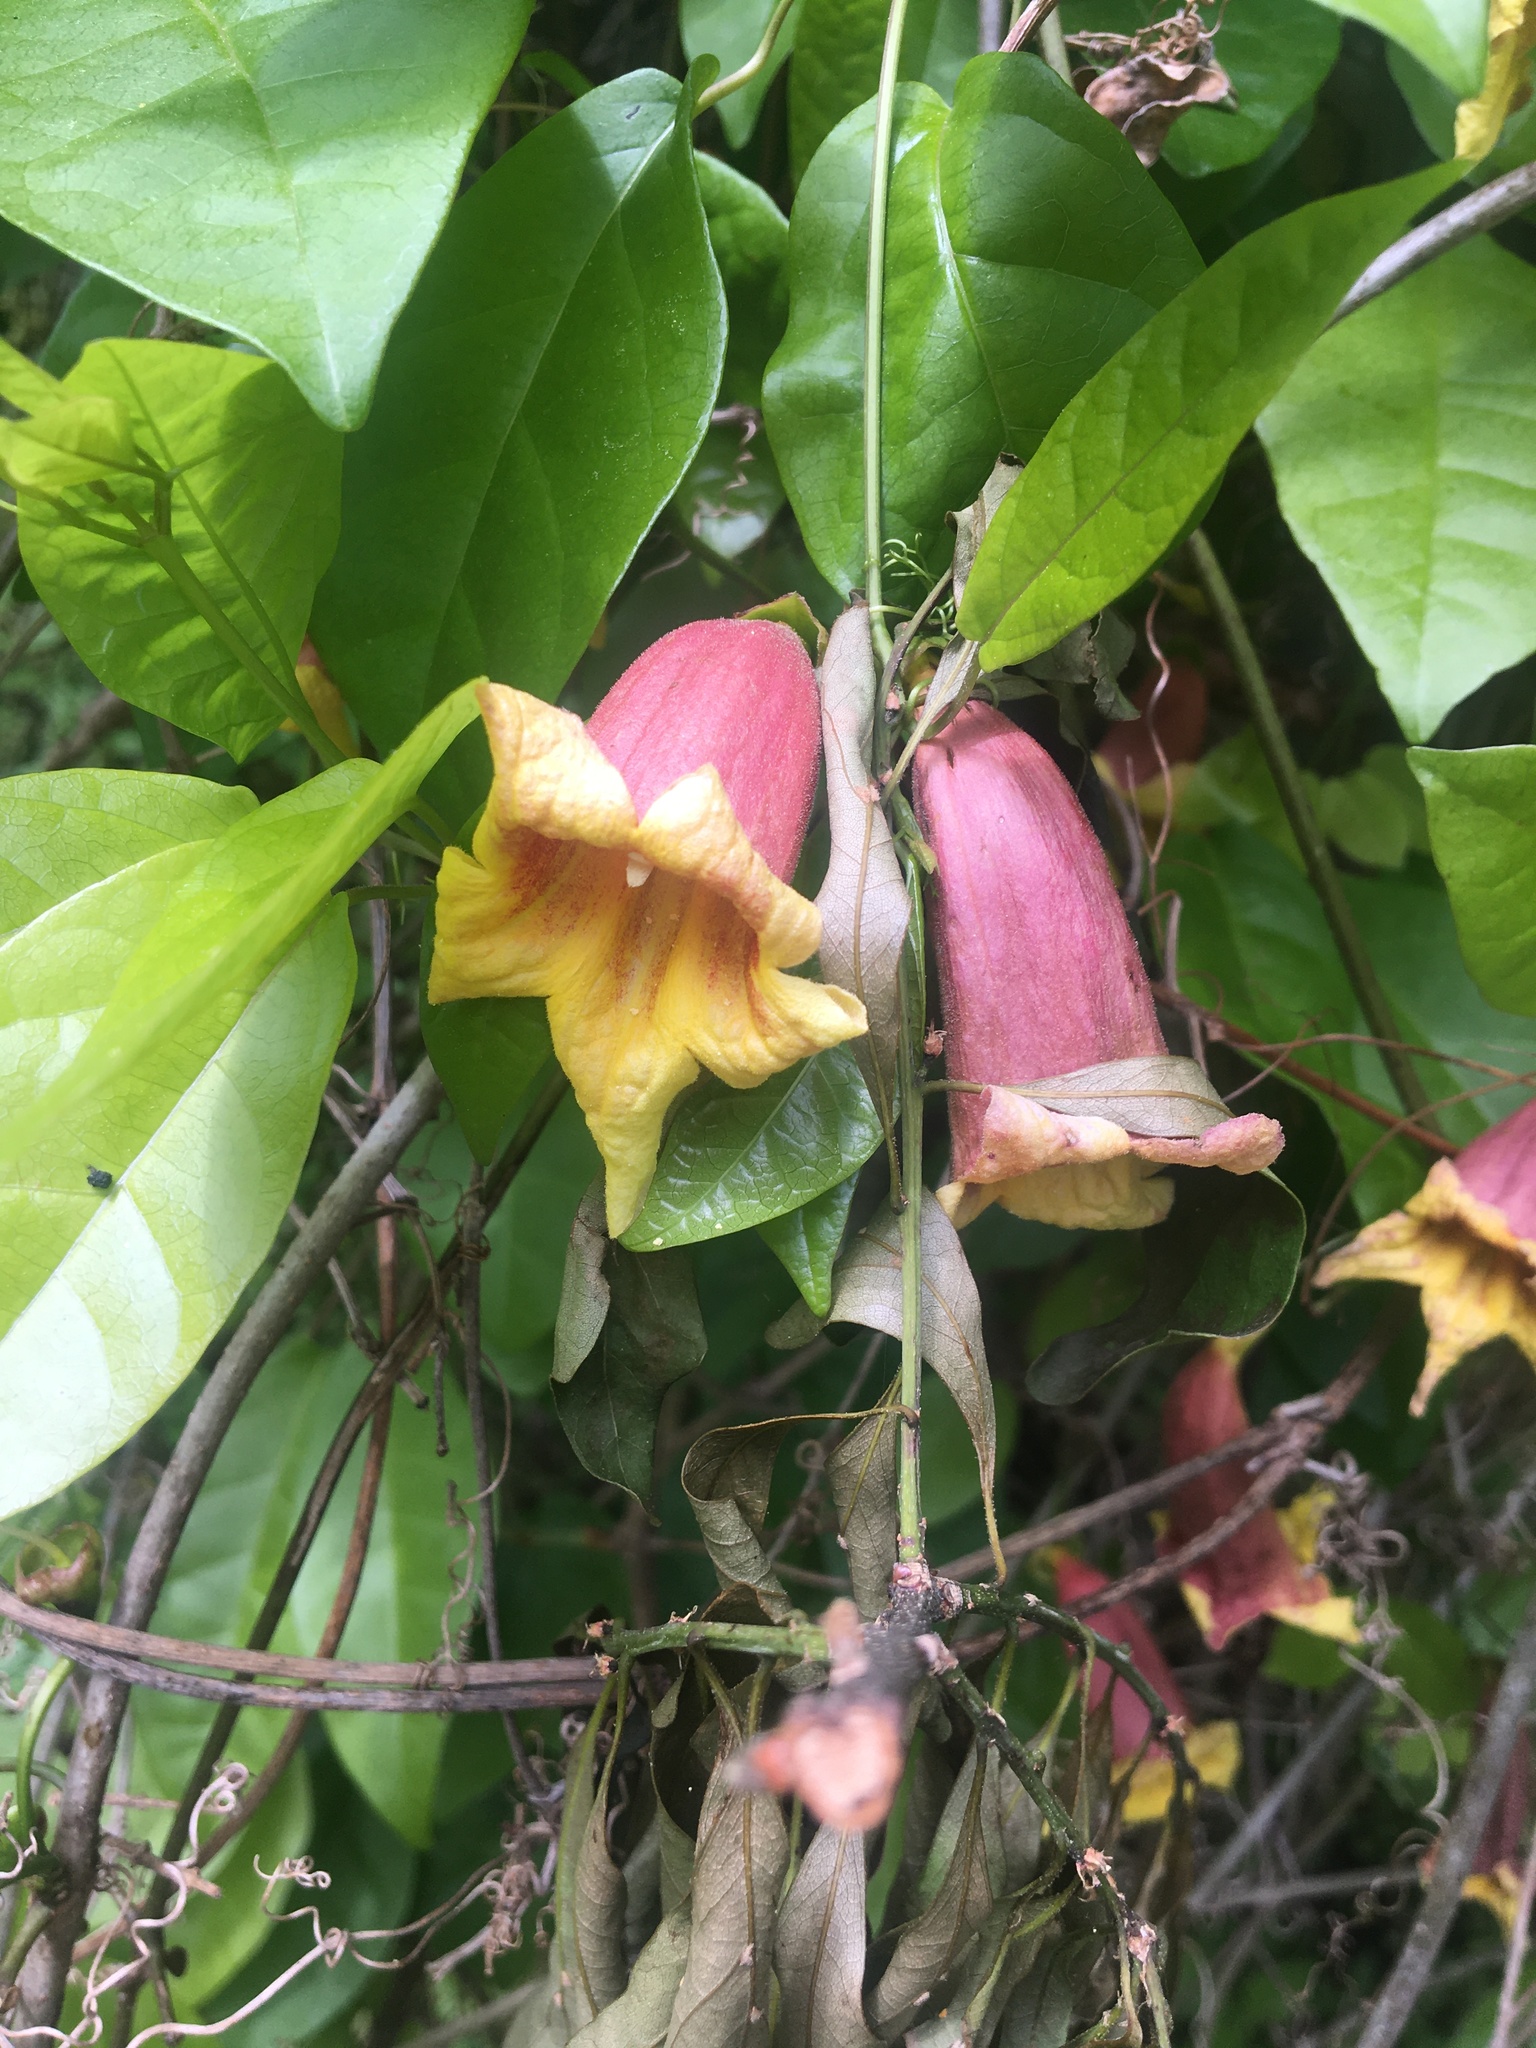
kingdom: Plantae
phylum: Tracheophyta
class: Magnoliopsida
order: Lamiales
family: Bignoniaceae
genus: Bignonia
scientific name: Bignonia capreolata
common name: Crossvine
